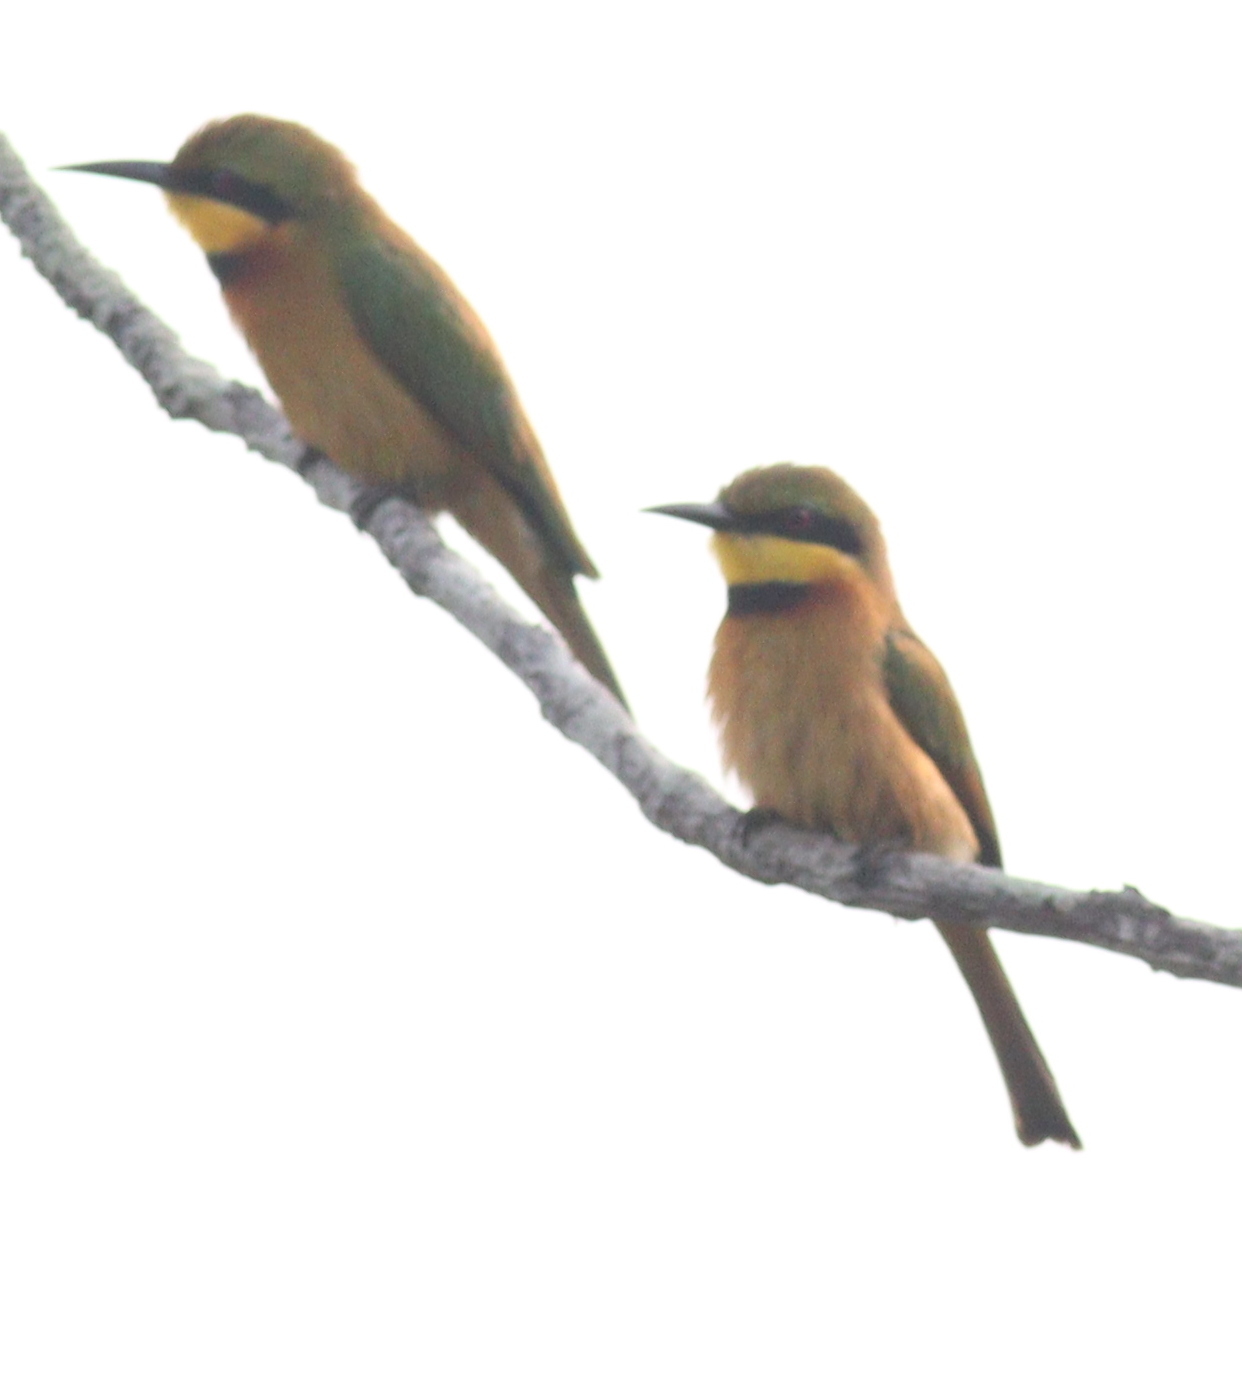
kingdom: Animalia
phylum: Chordata
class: Aves
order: Coraciiformes
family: Meropidae
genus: Merops
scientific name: Merops pusillus
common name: Little bee-eater
